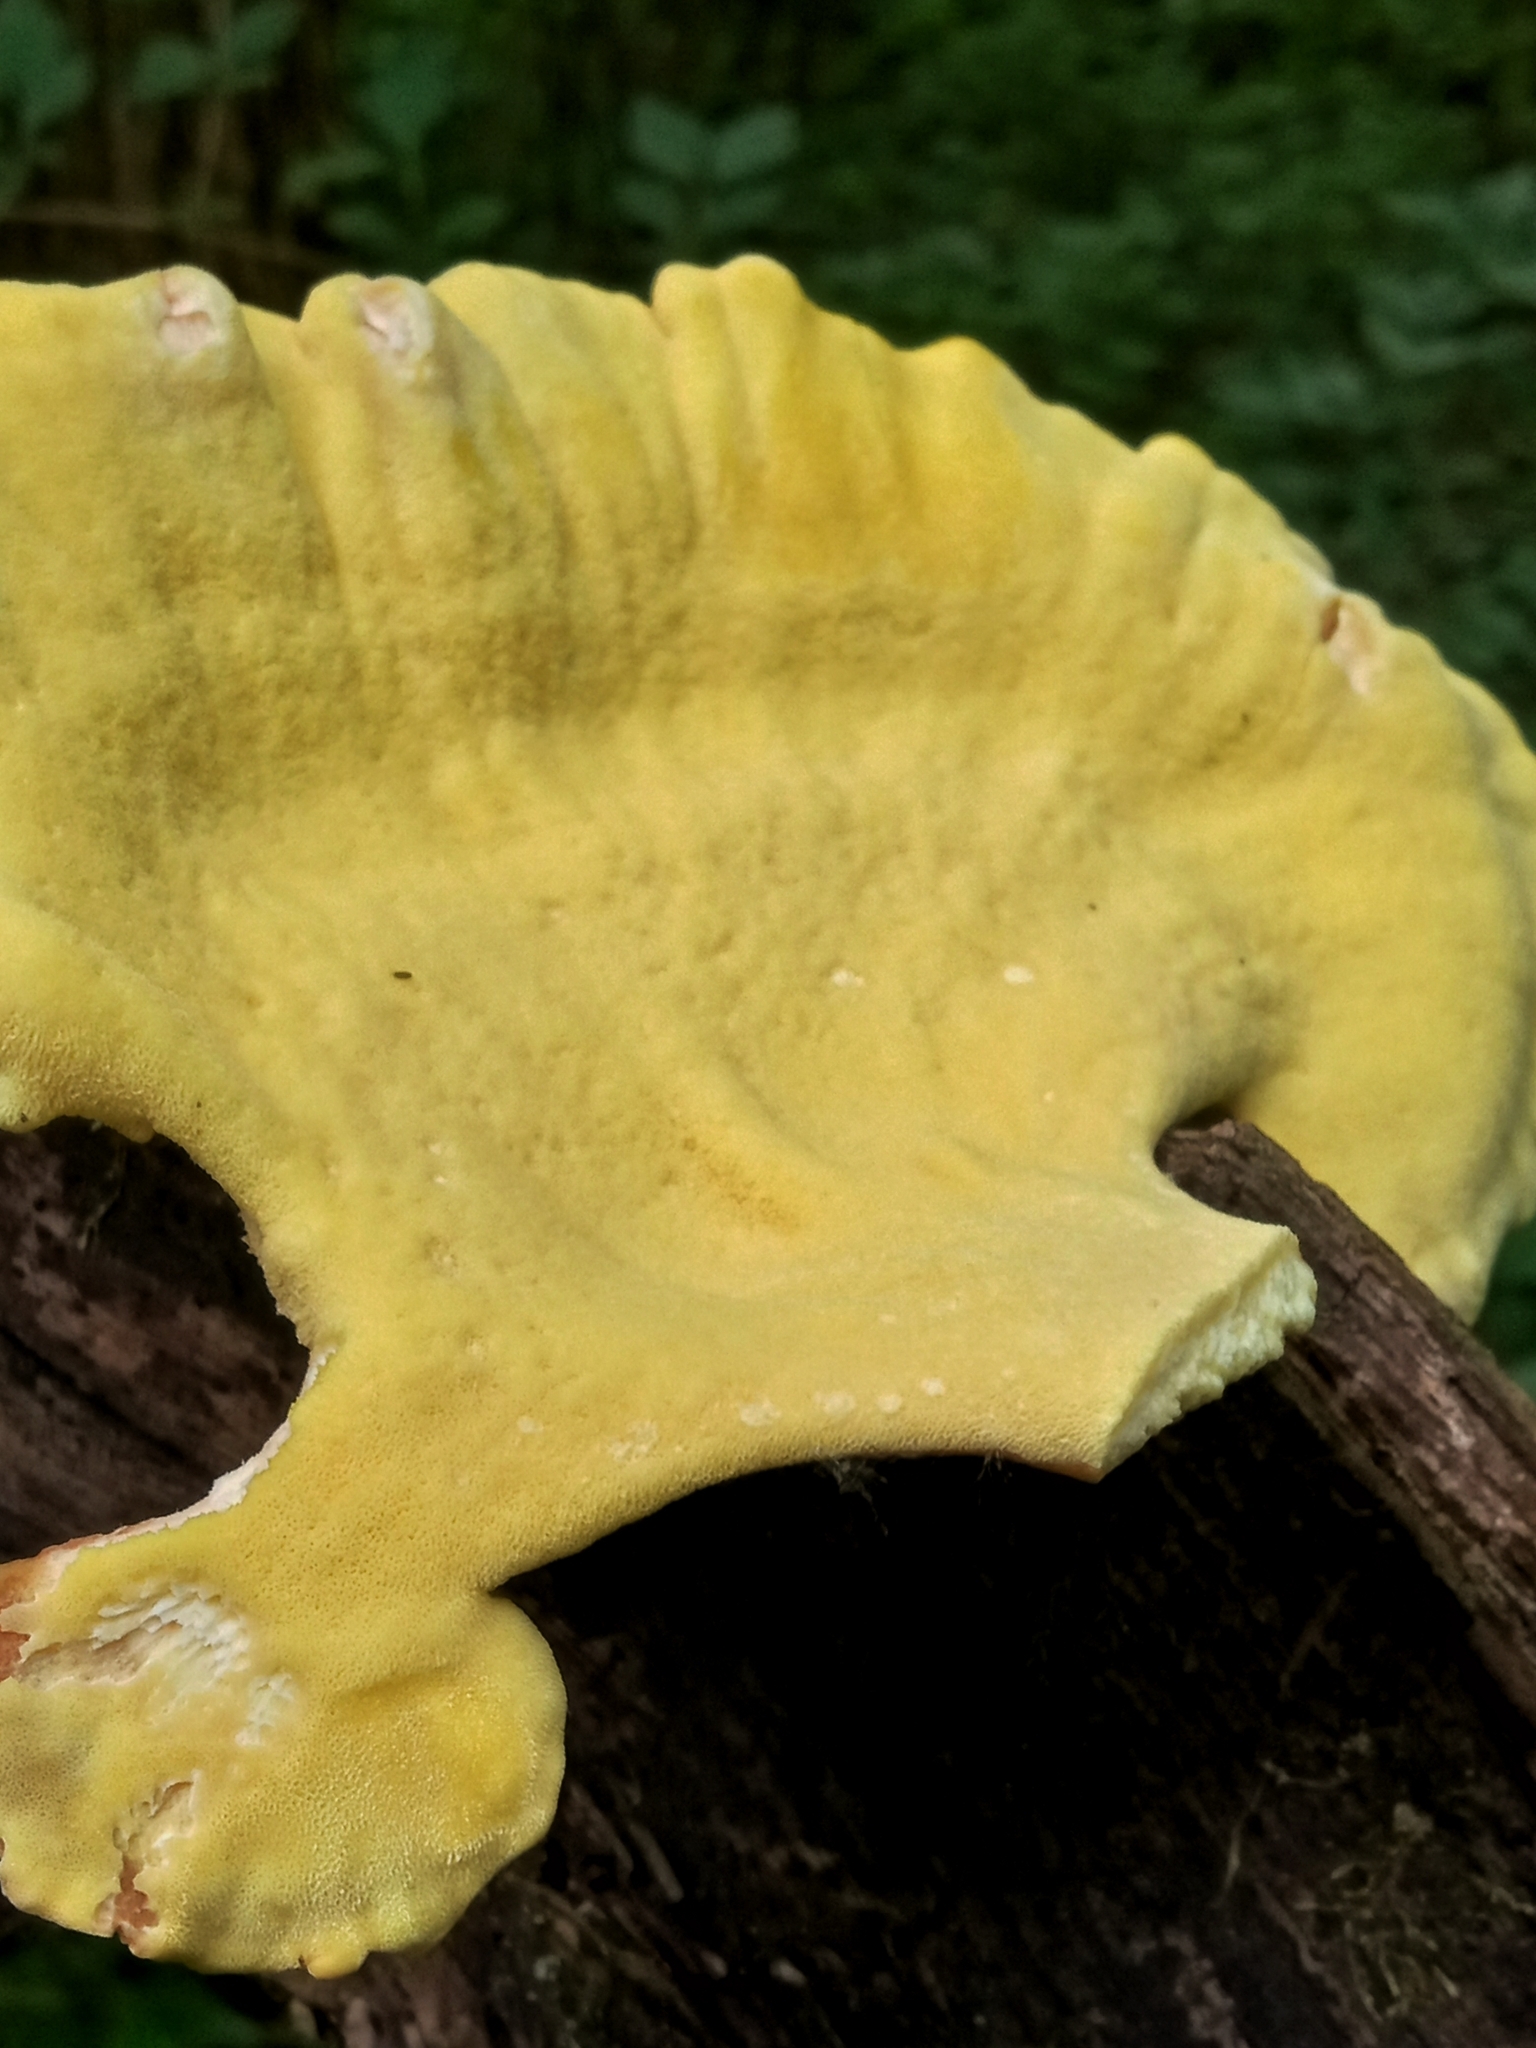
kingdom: Fungi
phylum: Basidiomycota
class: Agaricomycetes
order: Polyporales
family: Laetiporaceae
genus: Laetiporus
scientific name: Laetiporus sulphureus
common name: Chicken of the woods
